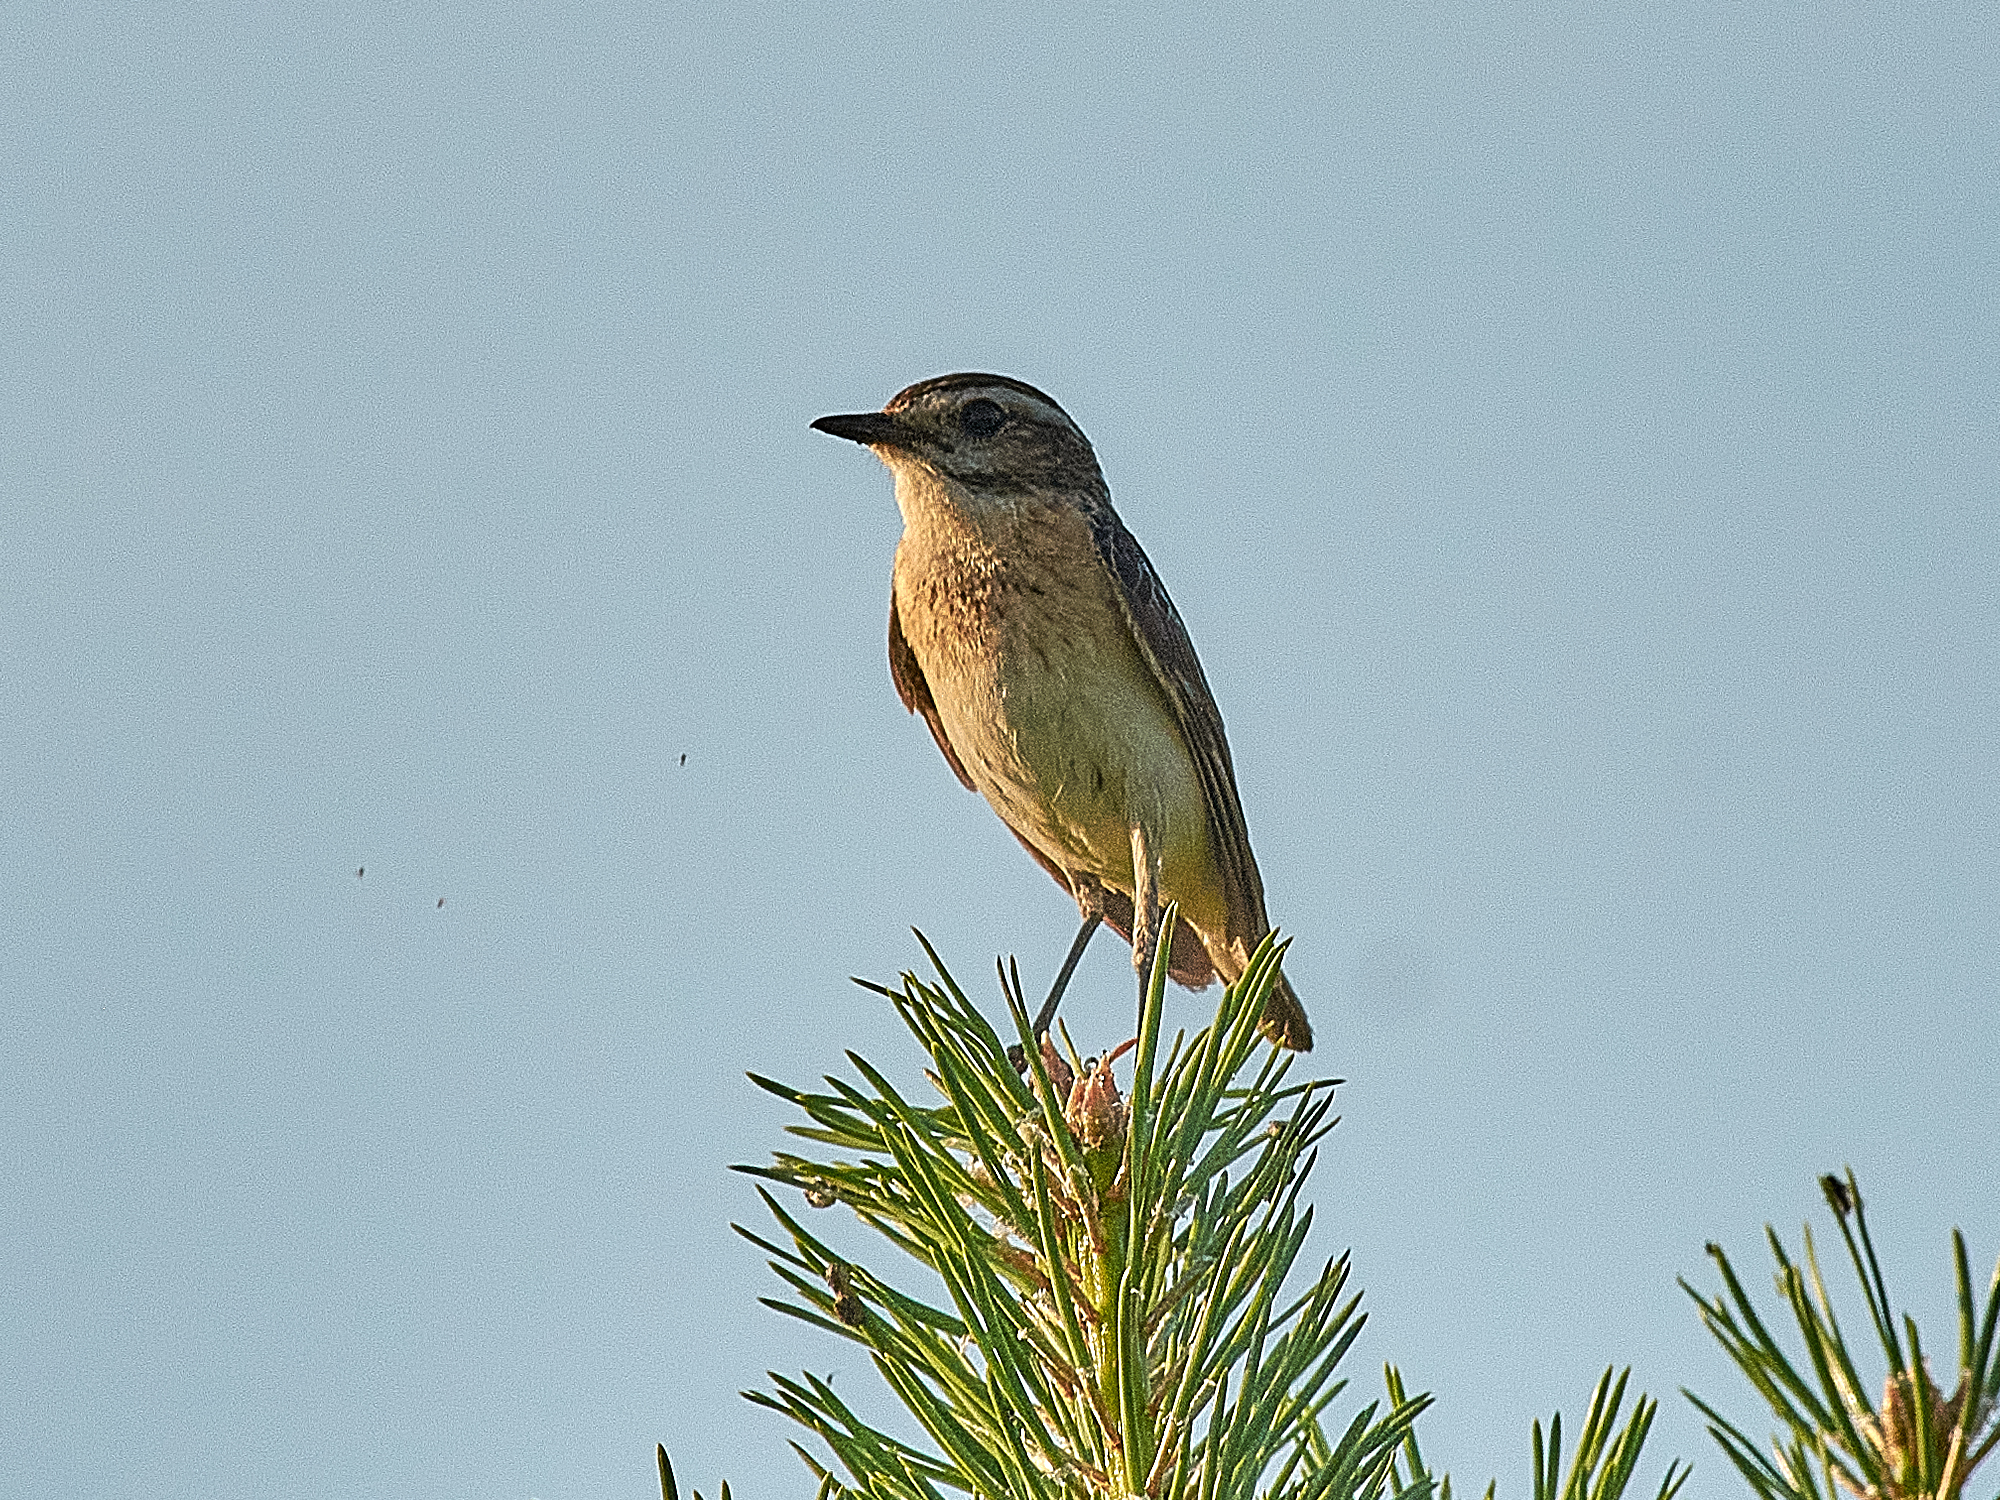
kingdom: Animalia
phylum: Chordata
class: Aves
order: Passeriformes
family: Muscicapidae
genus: Saxicola
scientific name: Saxicola rubetra
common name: Whinchat
